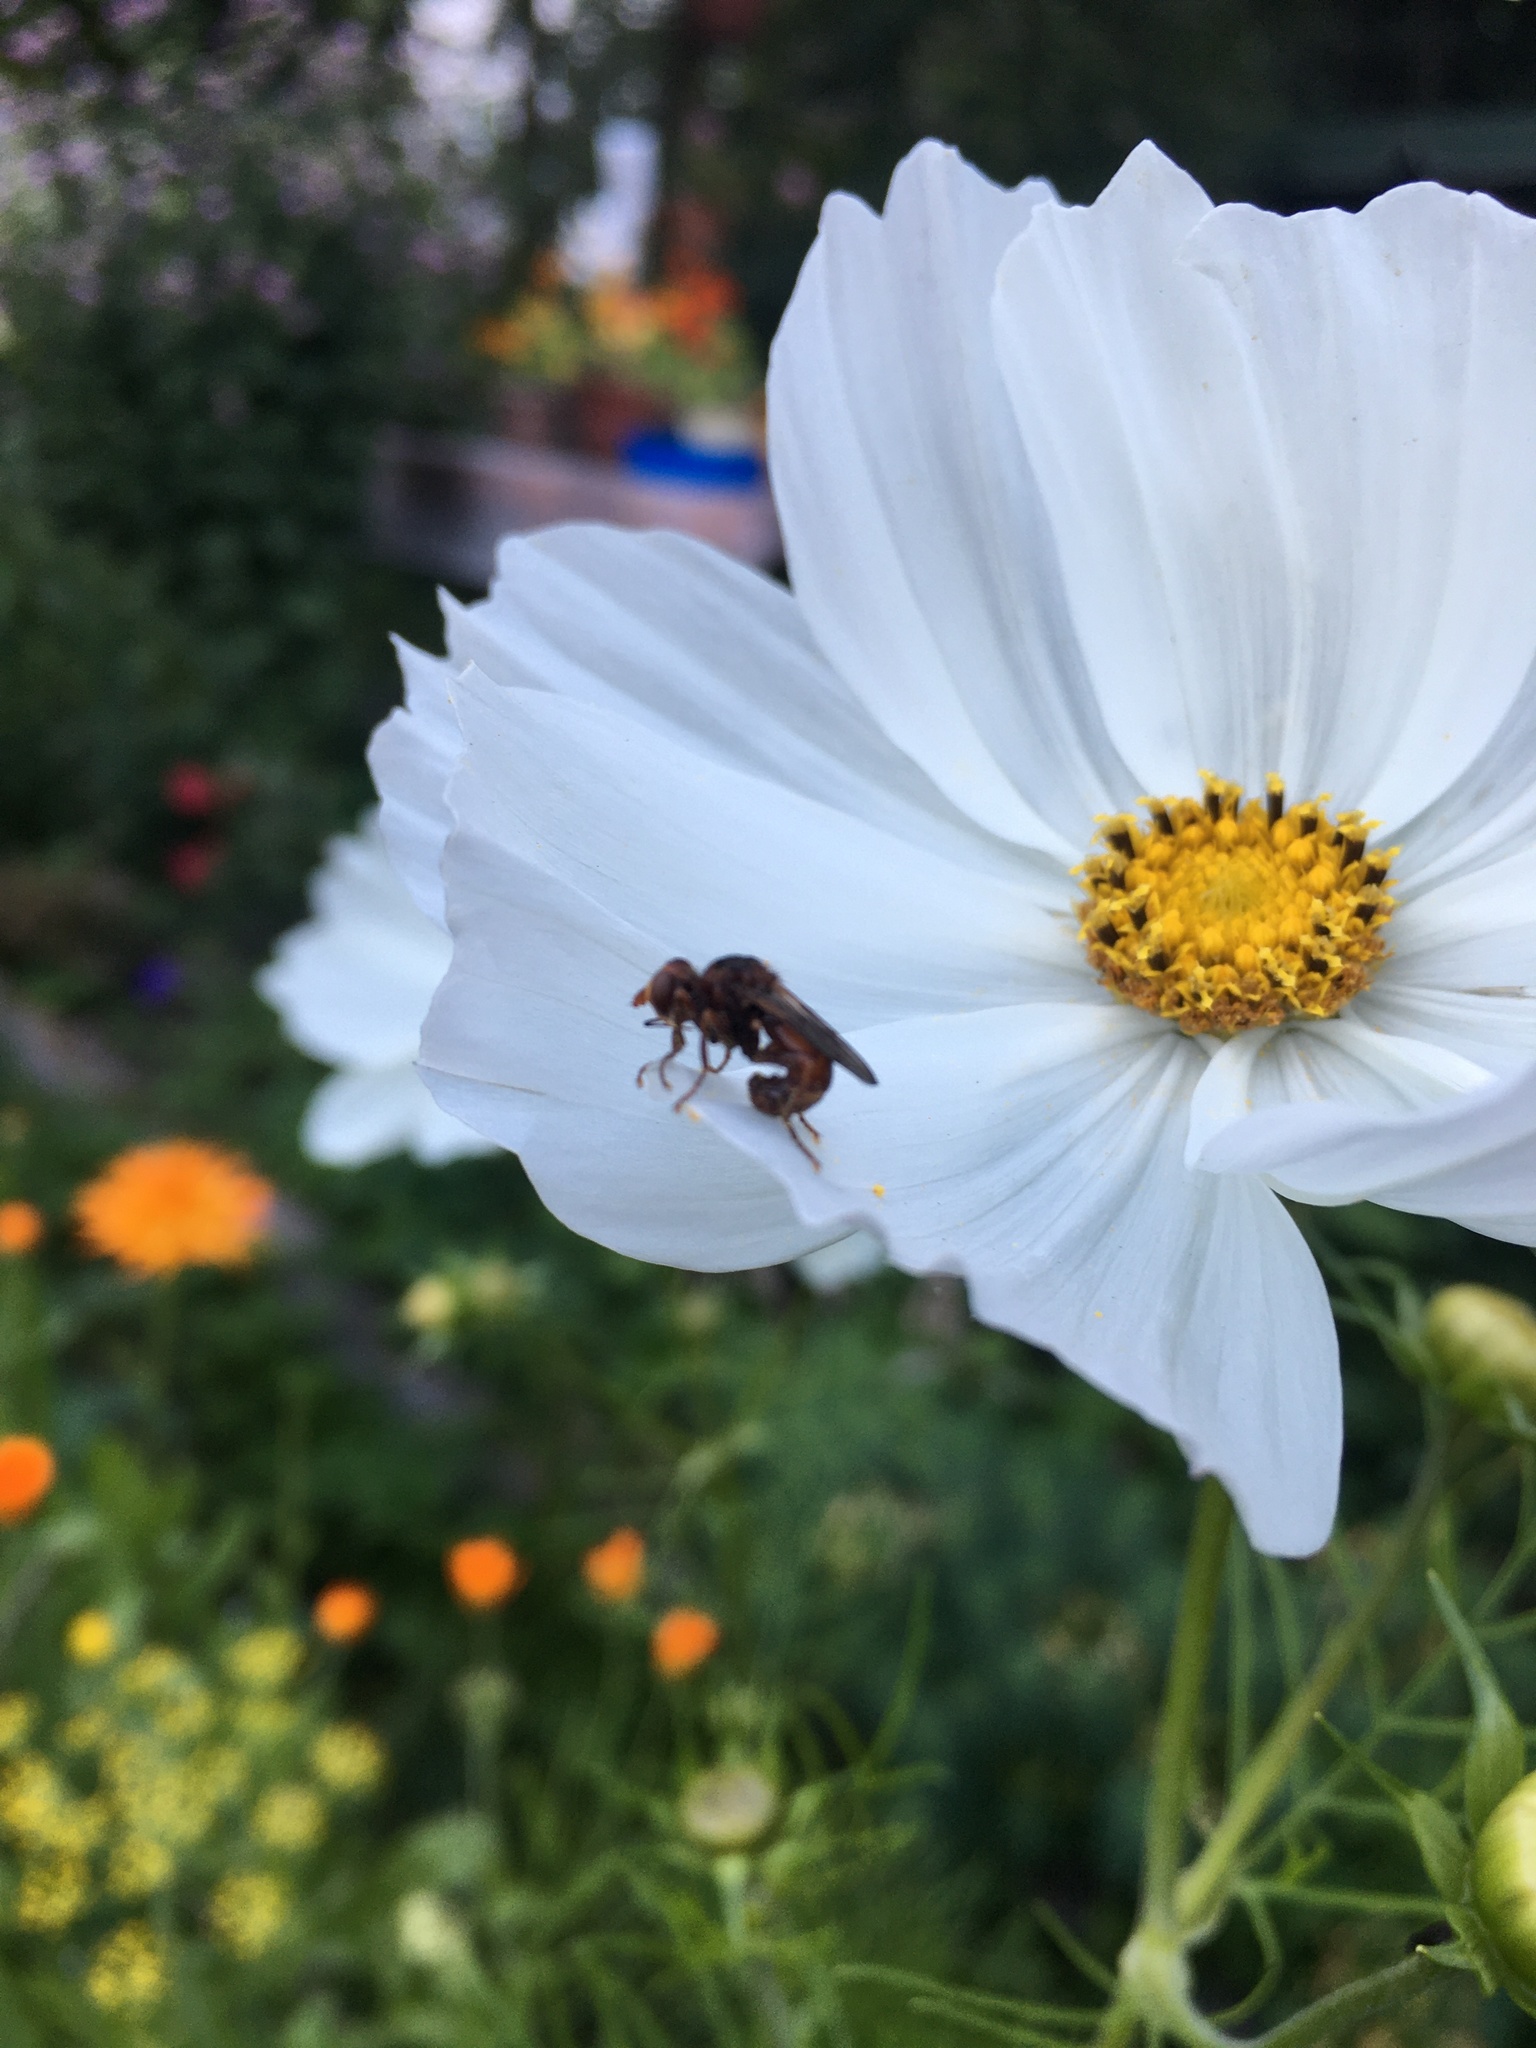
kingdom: Animalia
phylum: Arthropoda
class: Insecta
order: Diptera
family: Conopidae
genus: Sicus
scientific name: Sicus ferrugineus
